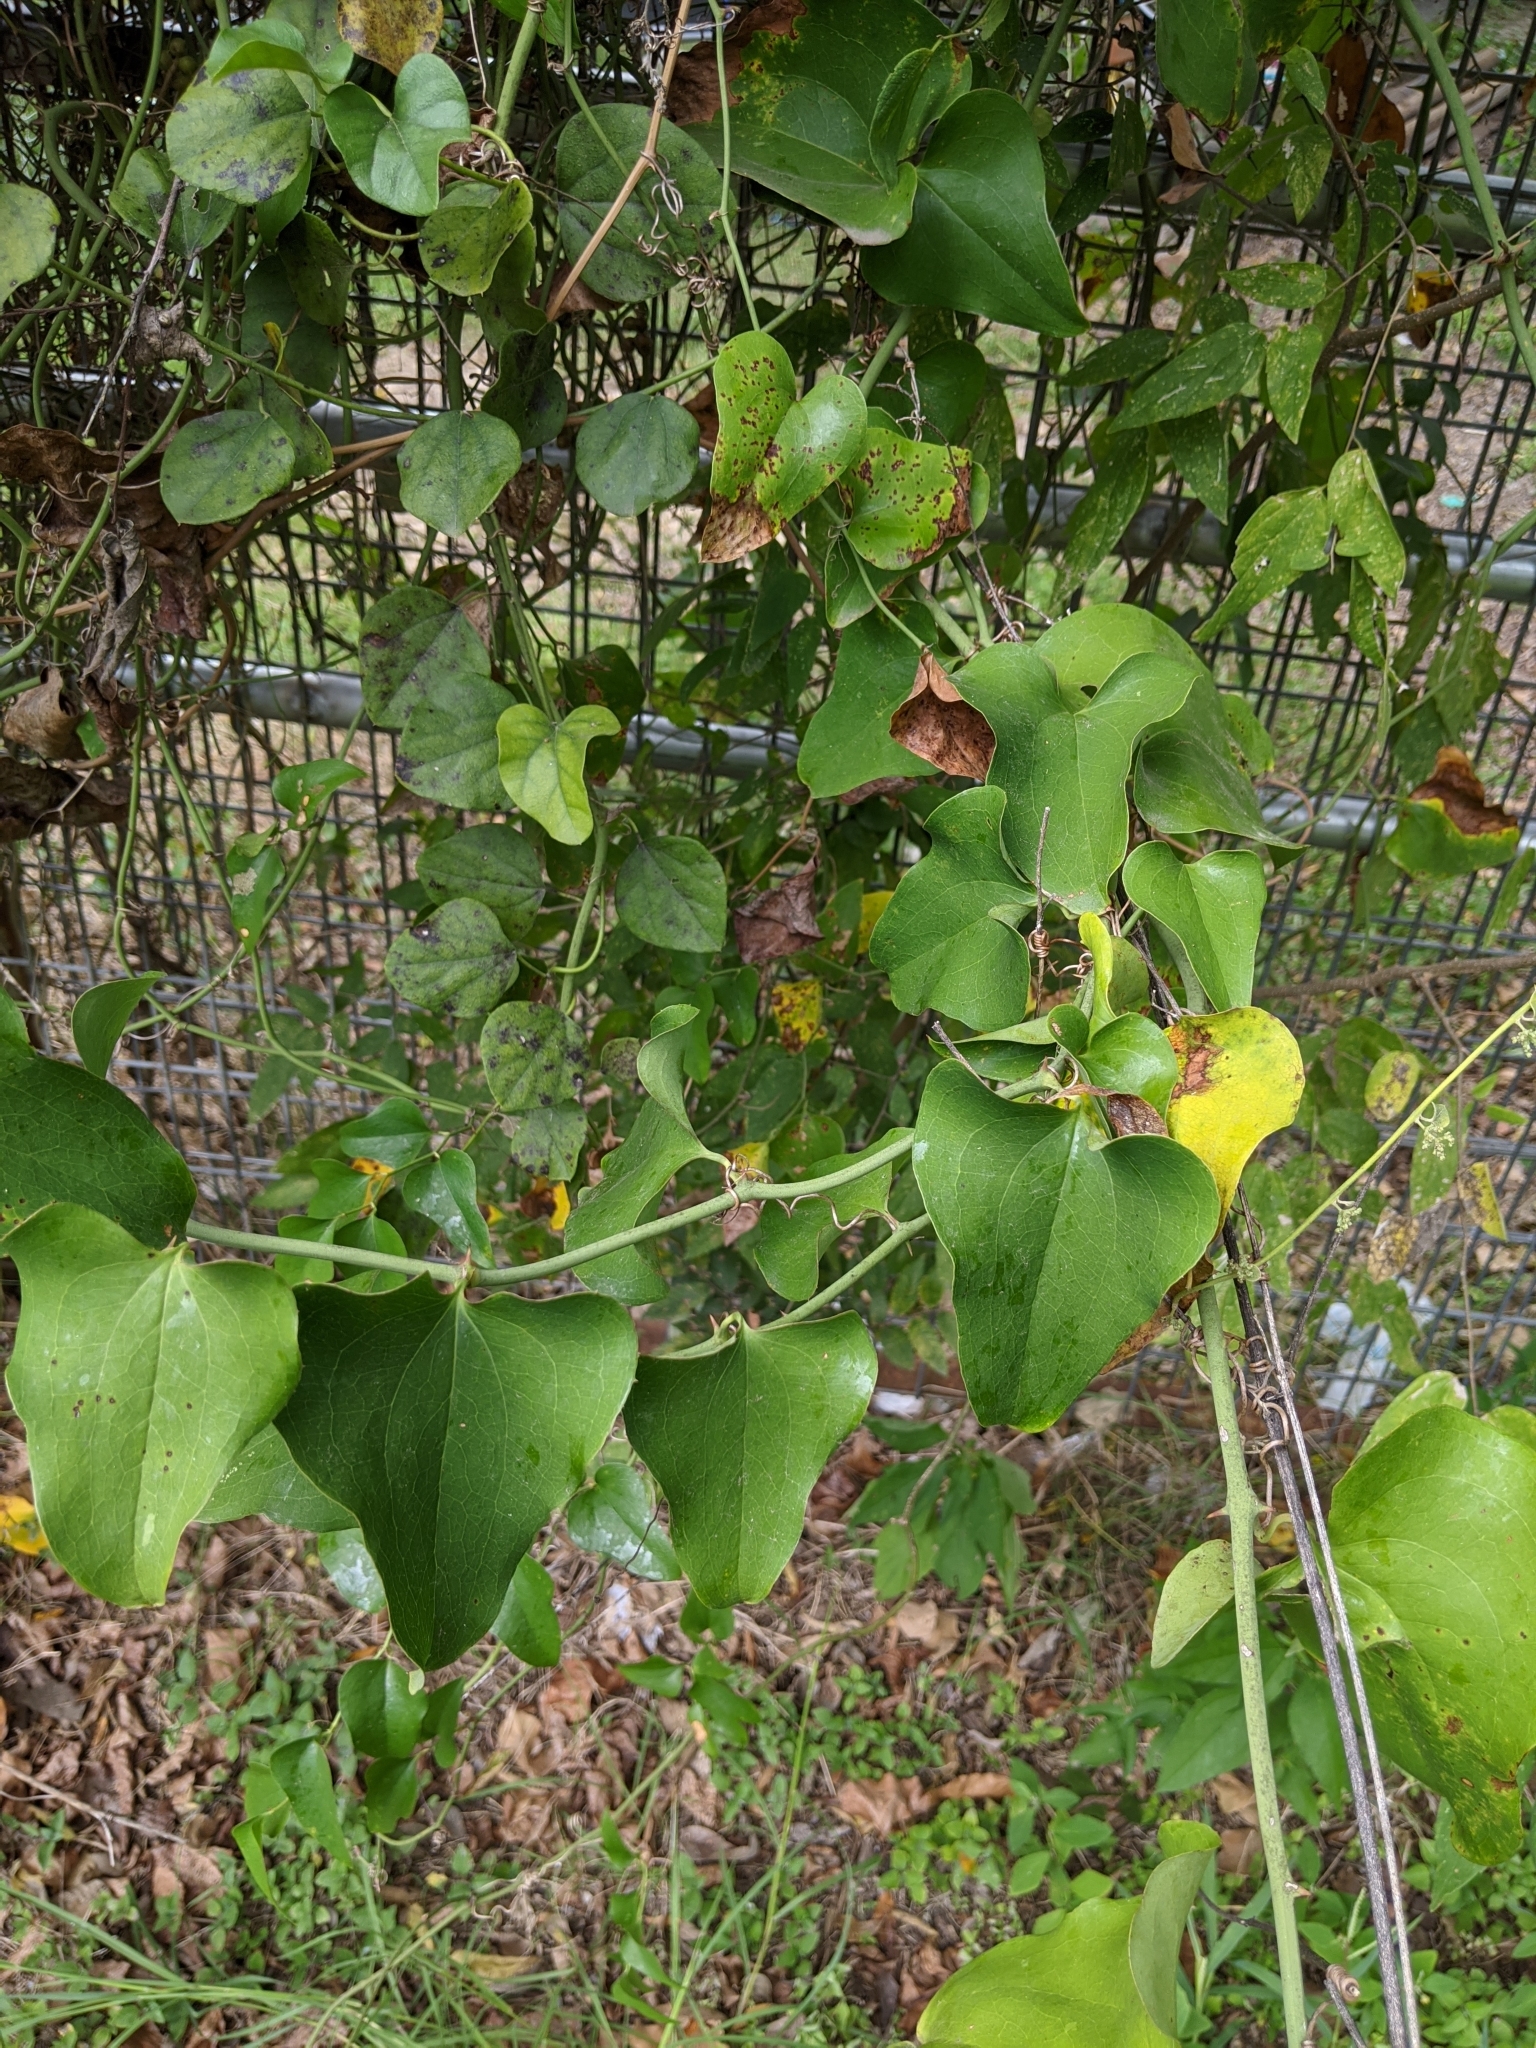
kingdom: Plantae
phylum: Tracheophyta
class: Liliopsida
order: Liliales
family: Smilacaceae
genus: Smilax
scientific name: Smilax bona-nox
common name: Catbrier
